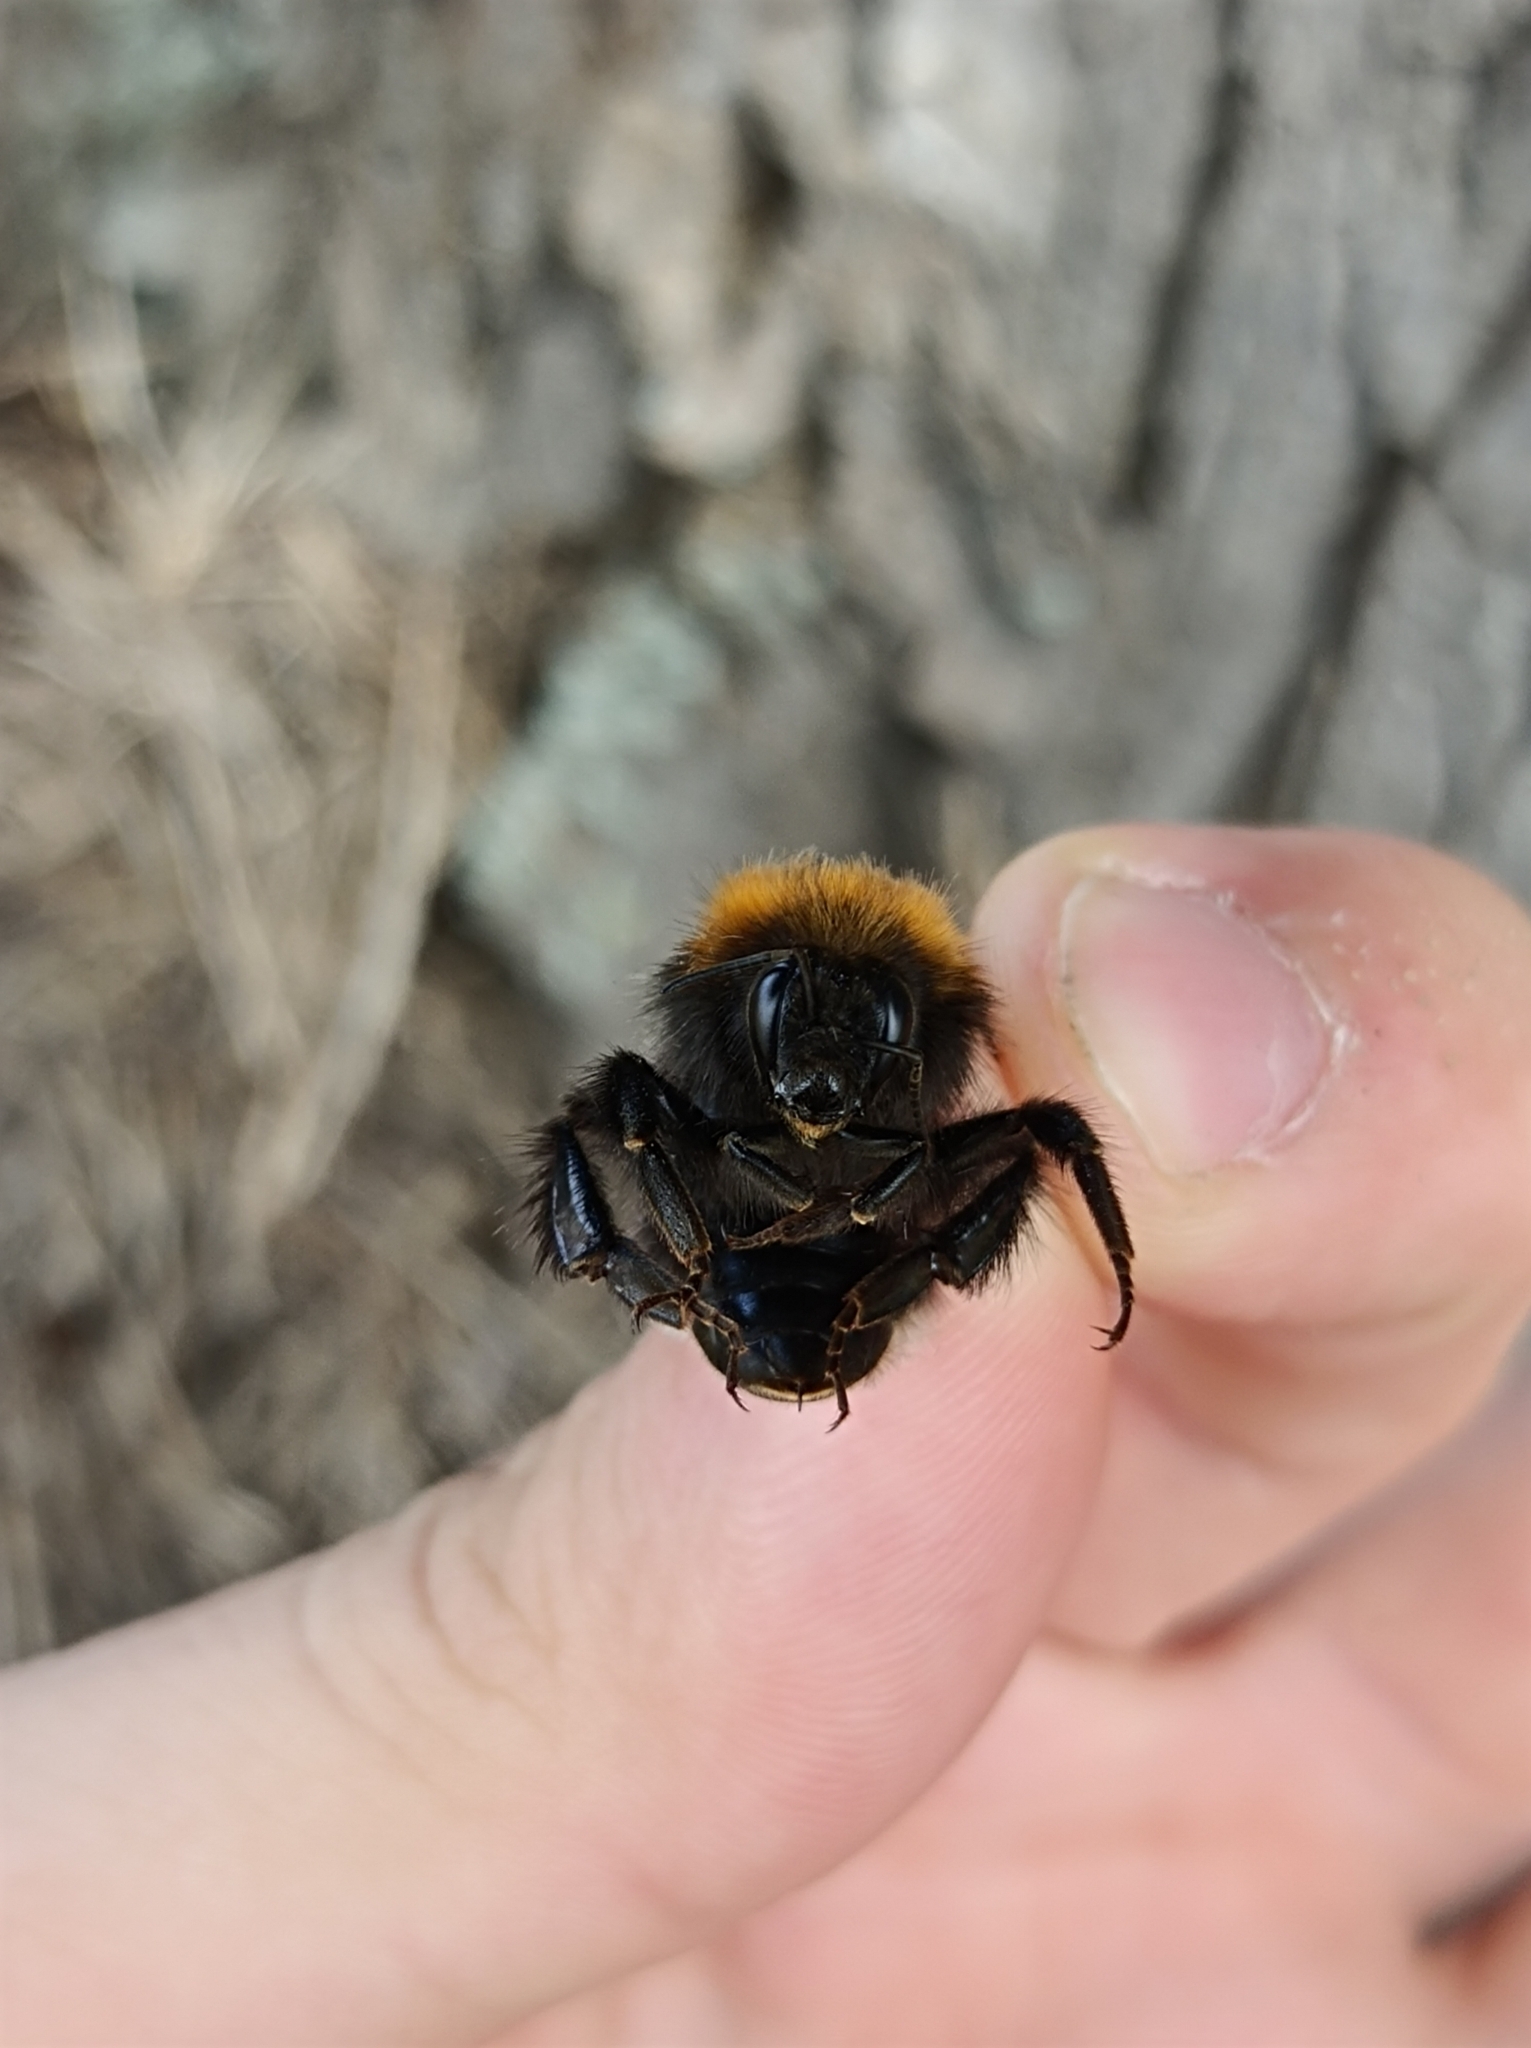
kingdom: Animalia
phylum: Arthropoda
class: Insecta
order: Hymenoptera
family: Apidae
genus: Bombus
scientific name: Bombus hypnorum
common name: New garden bumblebee
